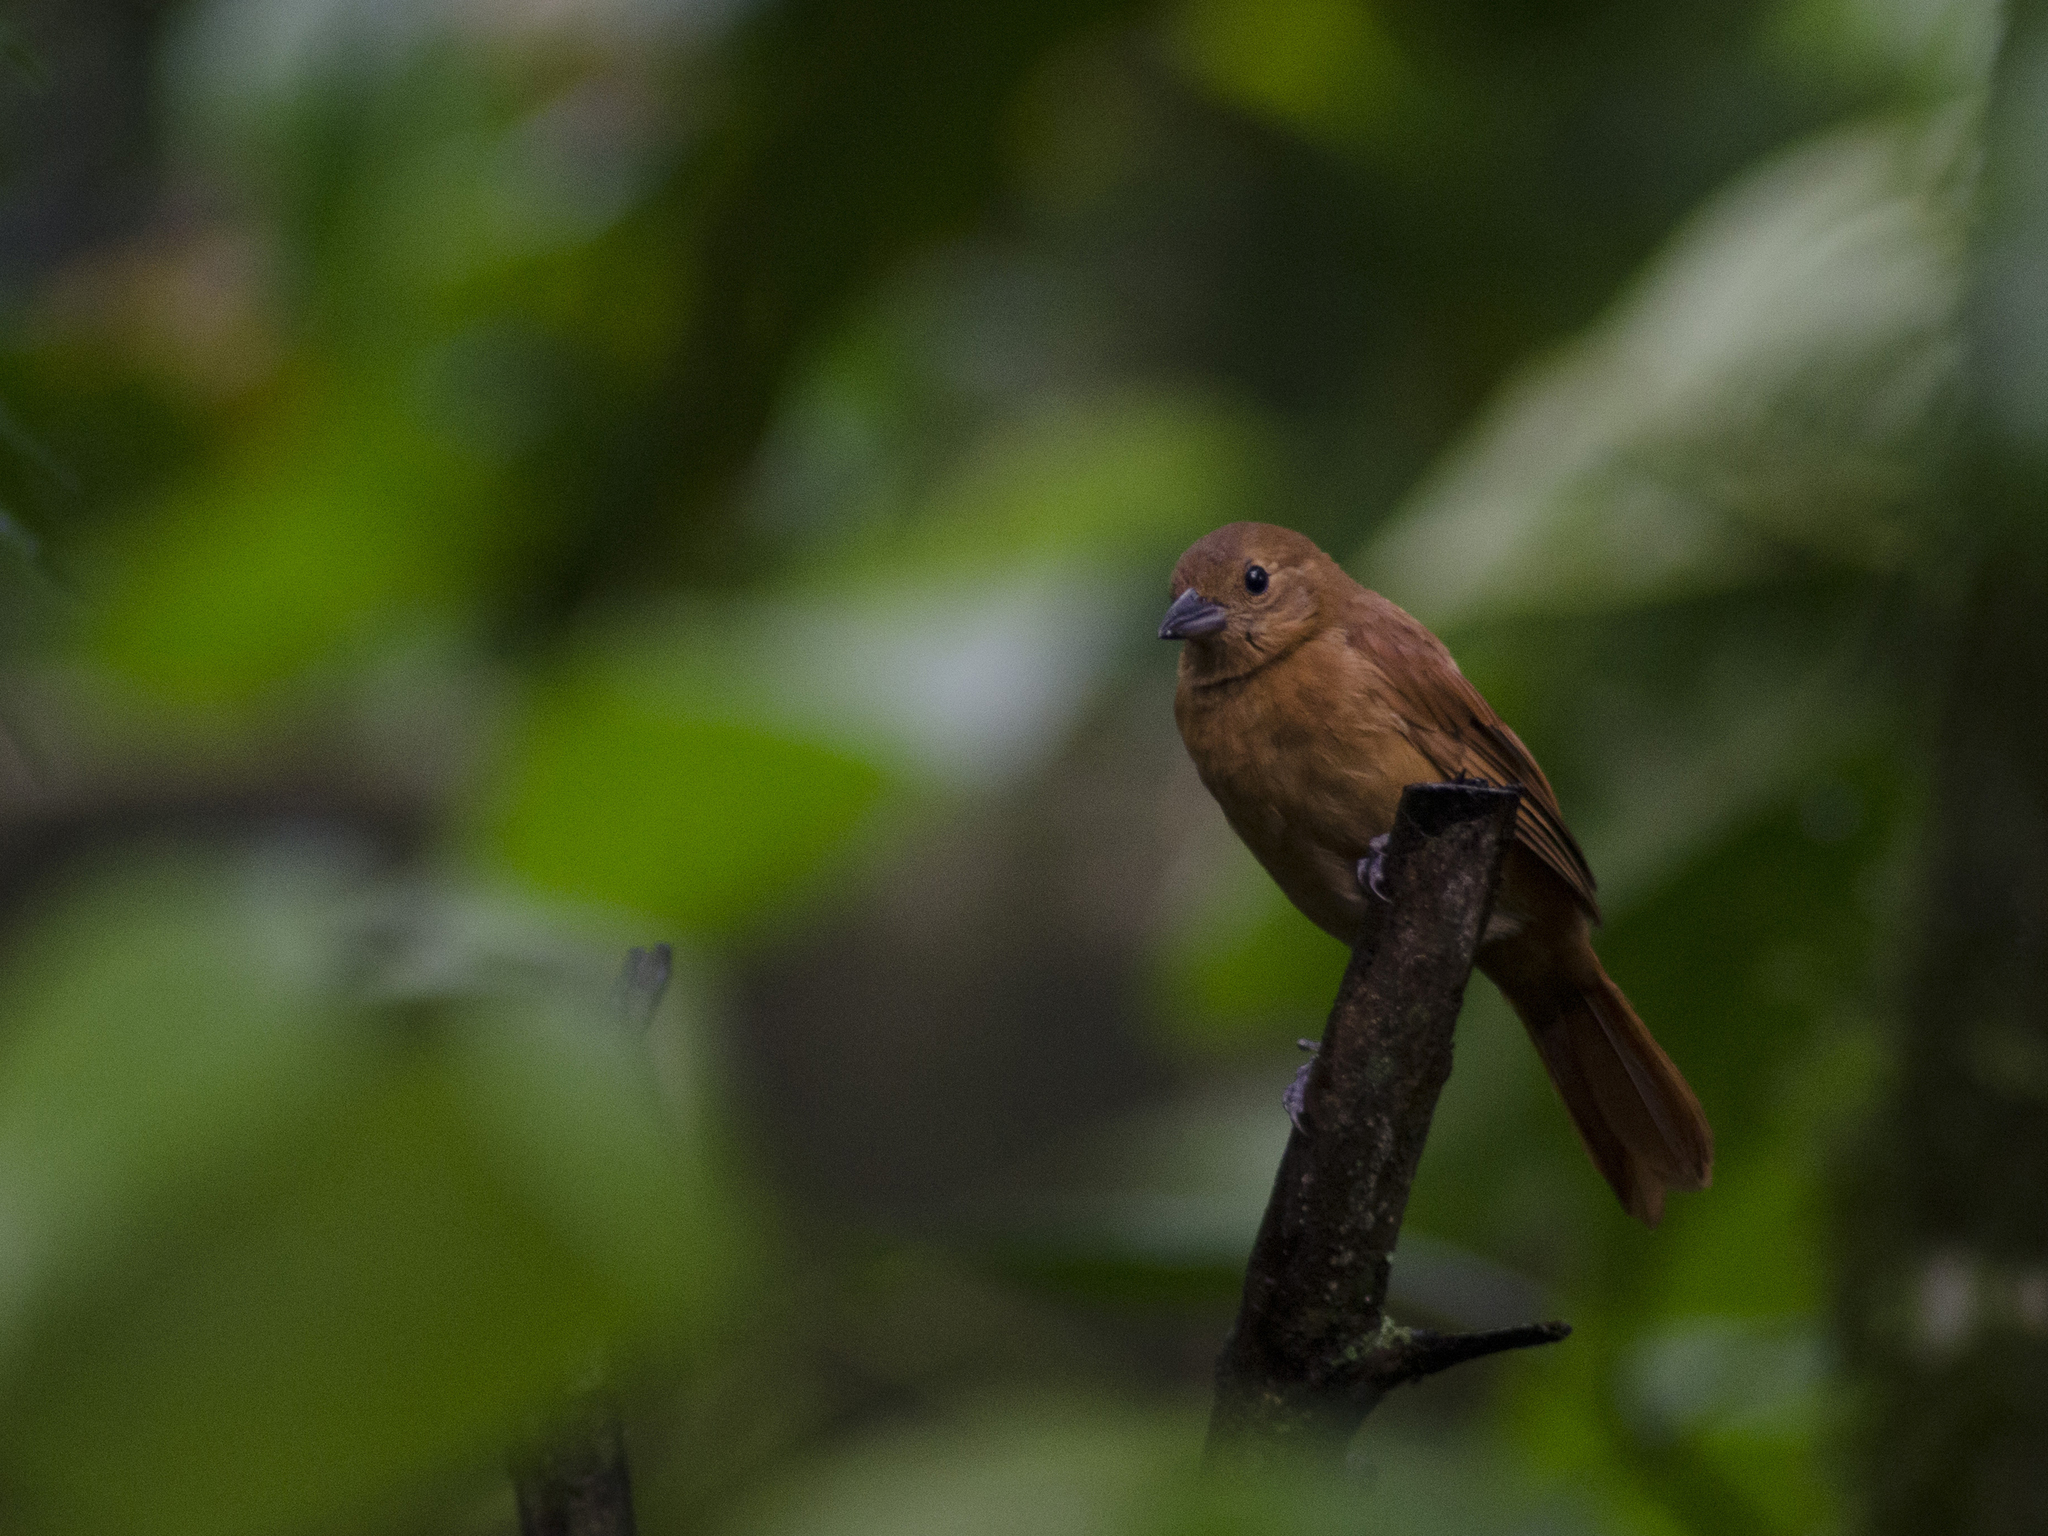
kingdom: Animalia
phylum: Chordata
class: Aves
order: Passeriformes
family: Thraupidae
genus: Tachyphonus
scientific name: Tachyphonus rufus
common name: White-lined tanager
